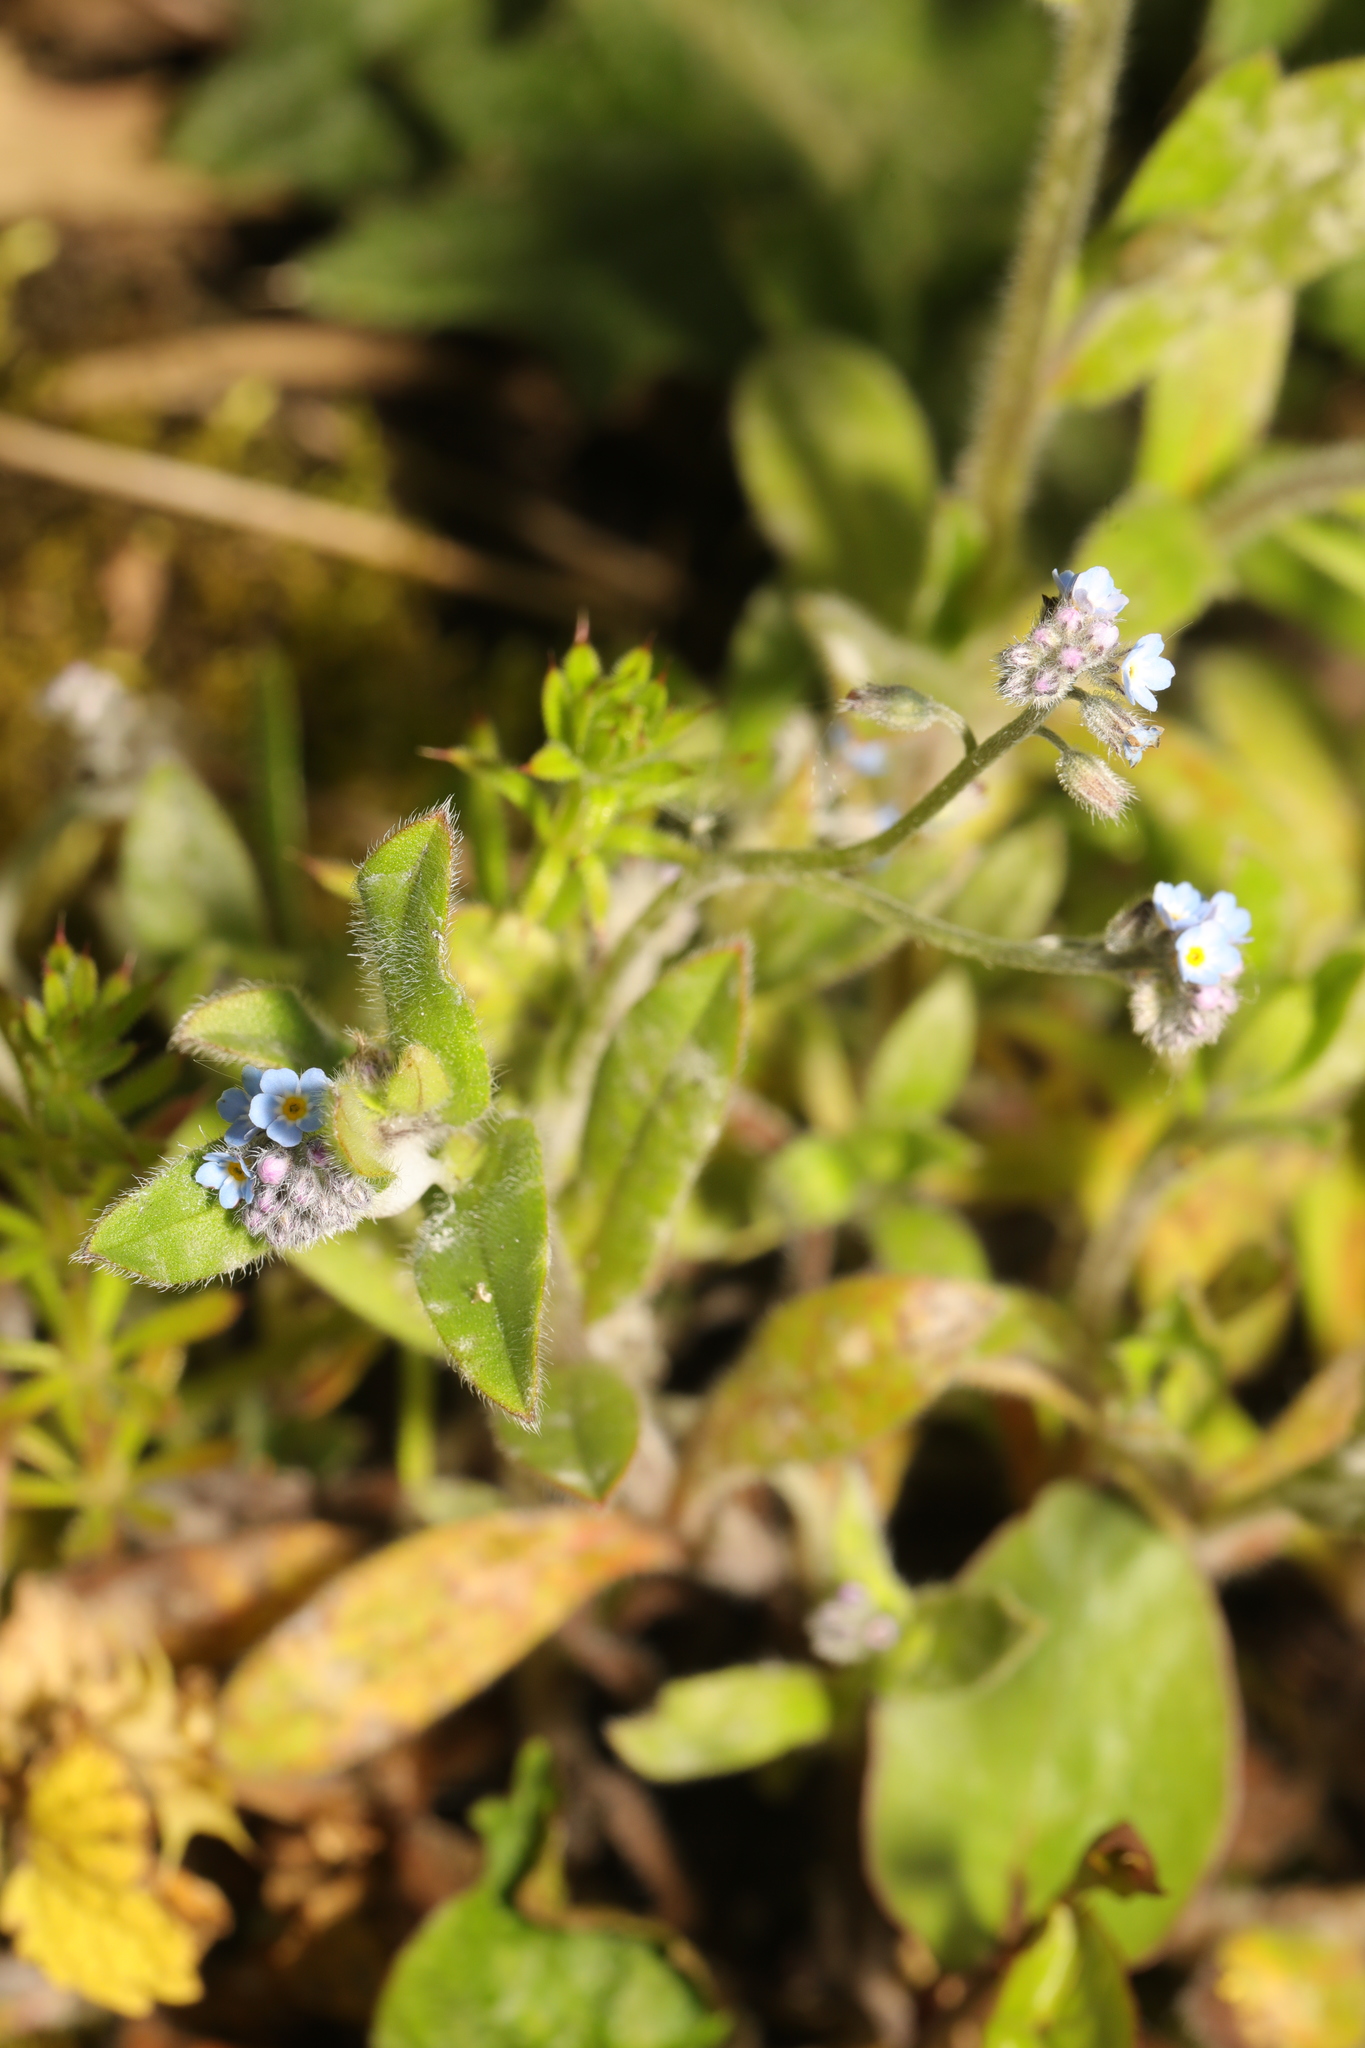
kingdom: Plantae
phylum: Tracheophyta
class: Magnoliopsida
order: Boraginales
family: Boraginaceae
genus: Myosotis
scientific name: Myosotis arvensis
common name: Field forget-me-not
